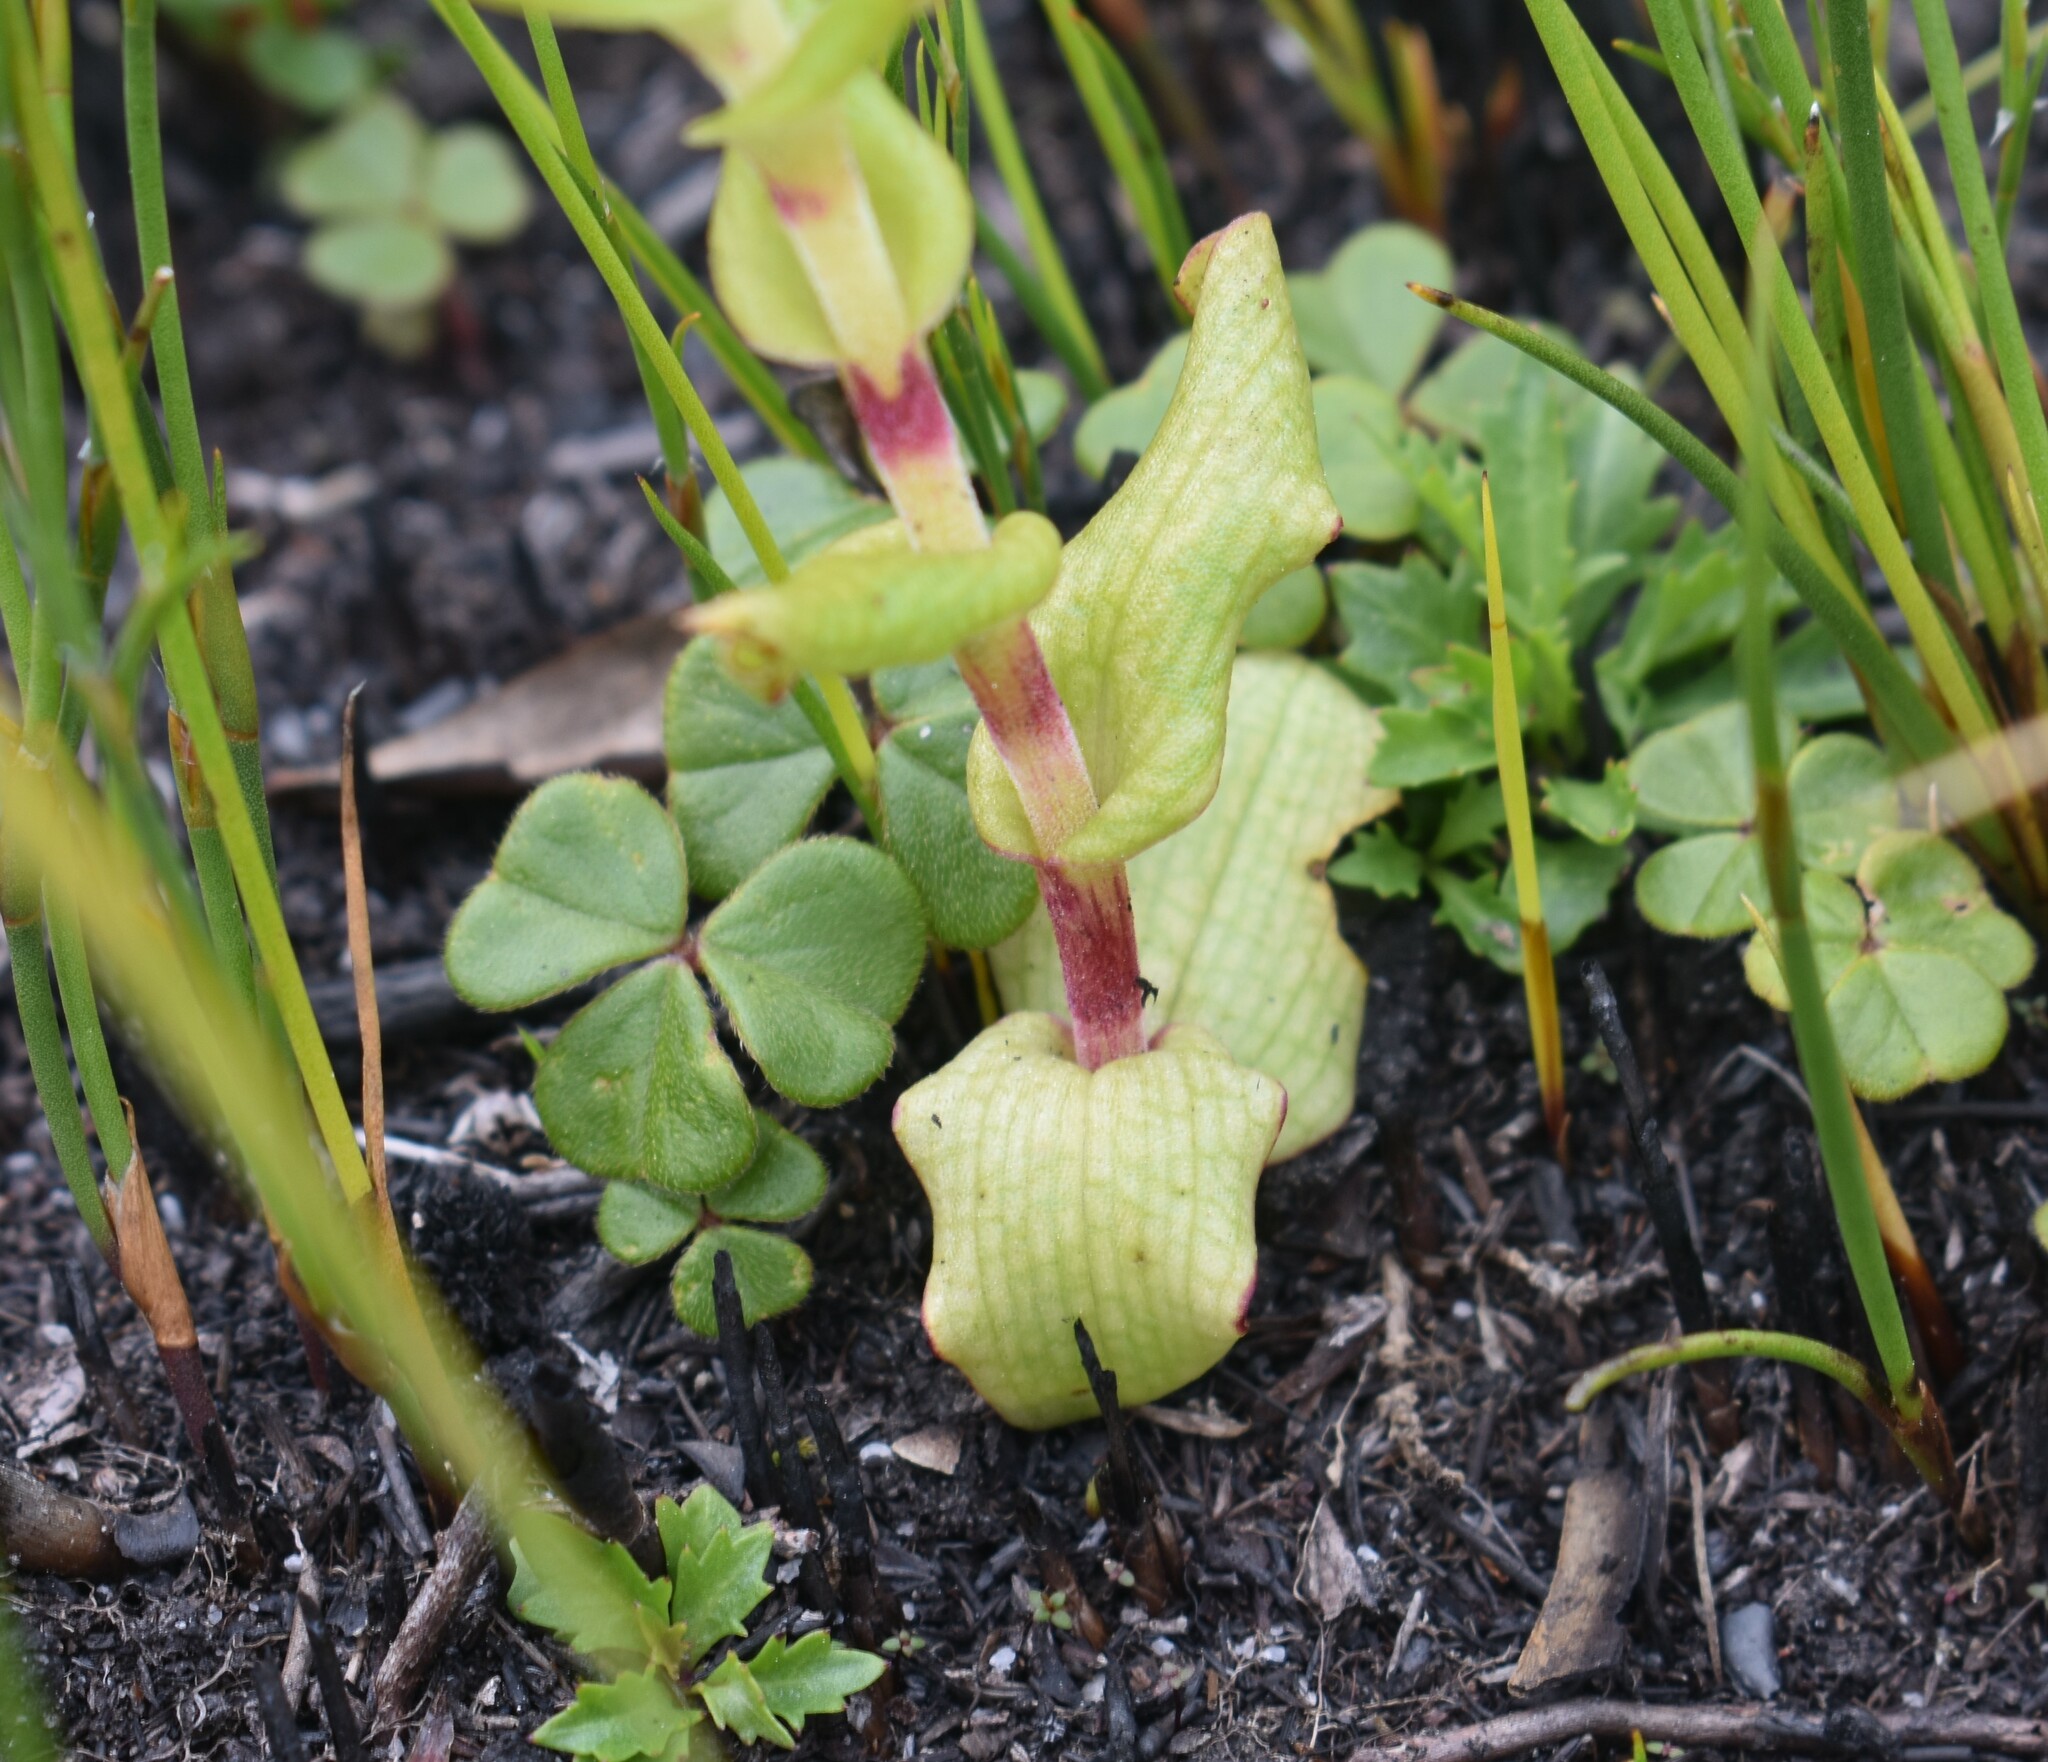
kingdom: Plantae
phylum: Tracheophyta
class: Liliopsida
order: Asparagales
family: Orchidaceae
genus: Satyrium
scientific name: Satyrium retusum
